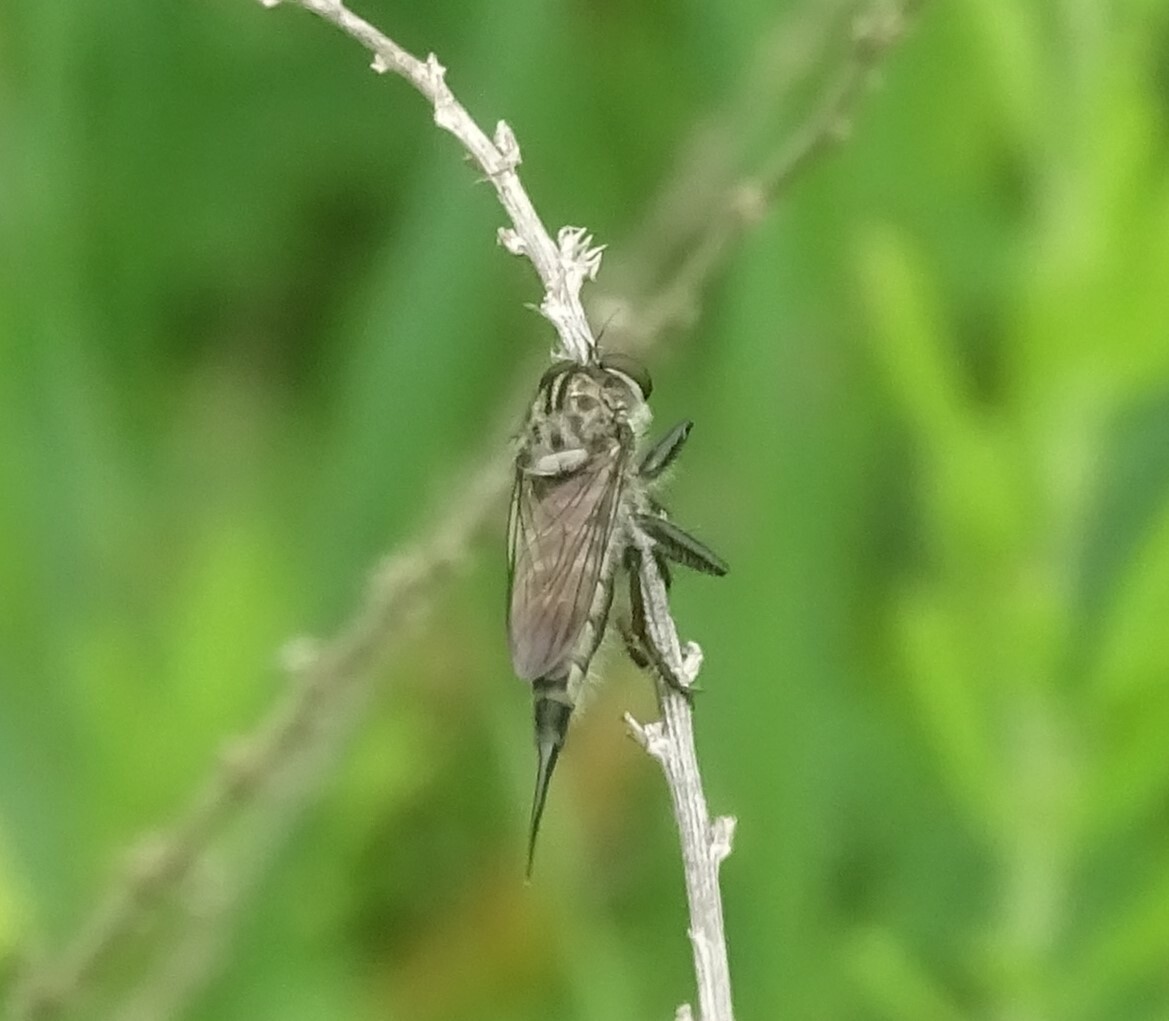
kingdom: Animalia
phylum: Arthropoda
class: Insecta
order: Diptera
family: Asilidae
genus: Efferia
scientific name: Efferia aestuans
